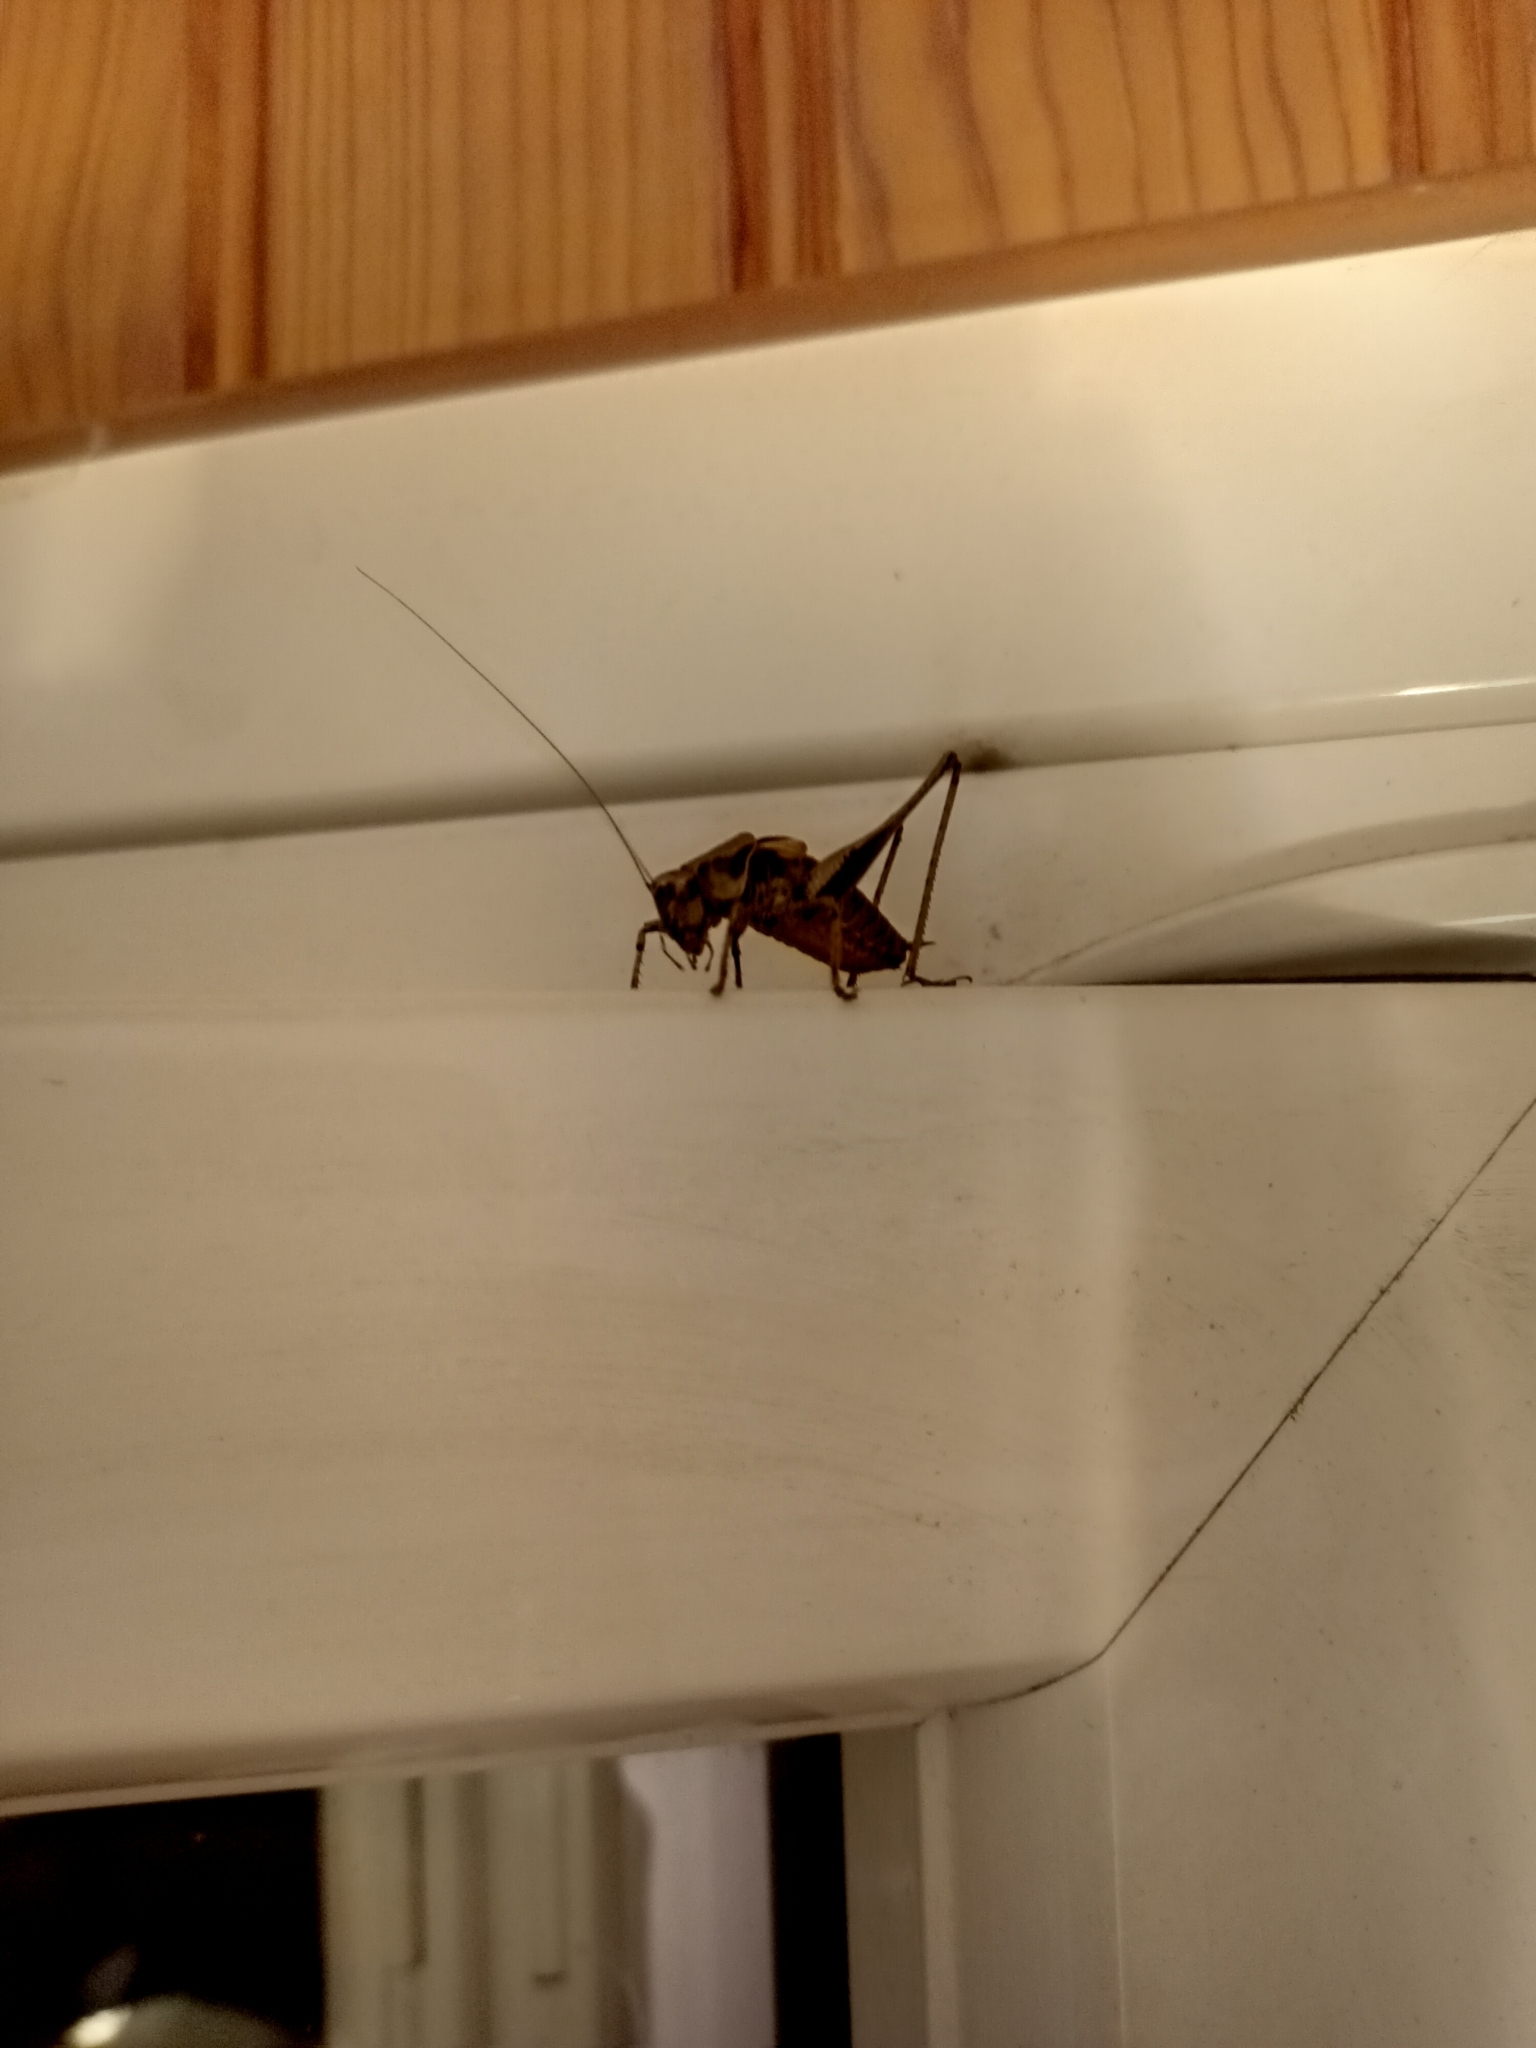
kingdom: Animalia
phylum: Arthropoda
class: Insecta
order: Orthoptera
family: Tettigoniidae
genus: Pholidoptera
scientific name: Pholidoptera griseoaptera
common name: Dark bush-cricket
